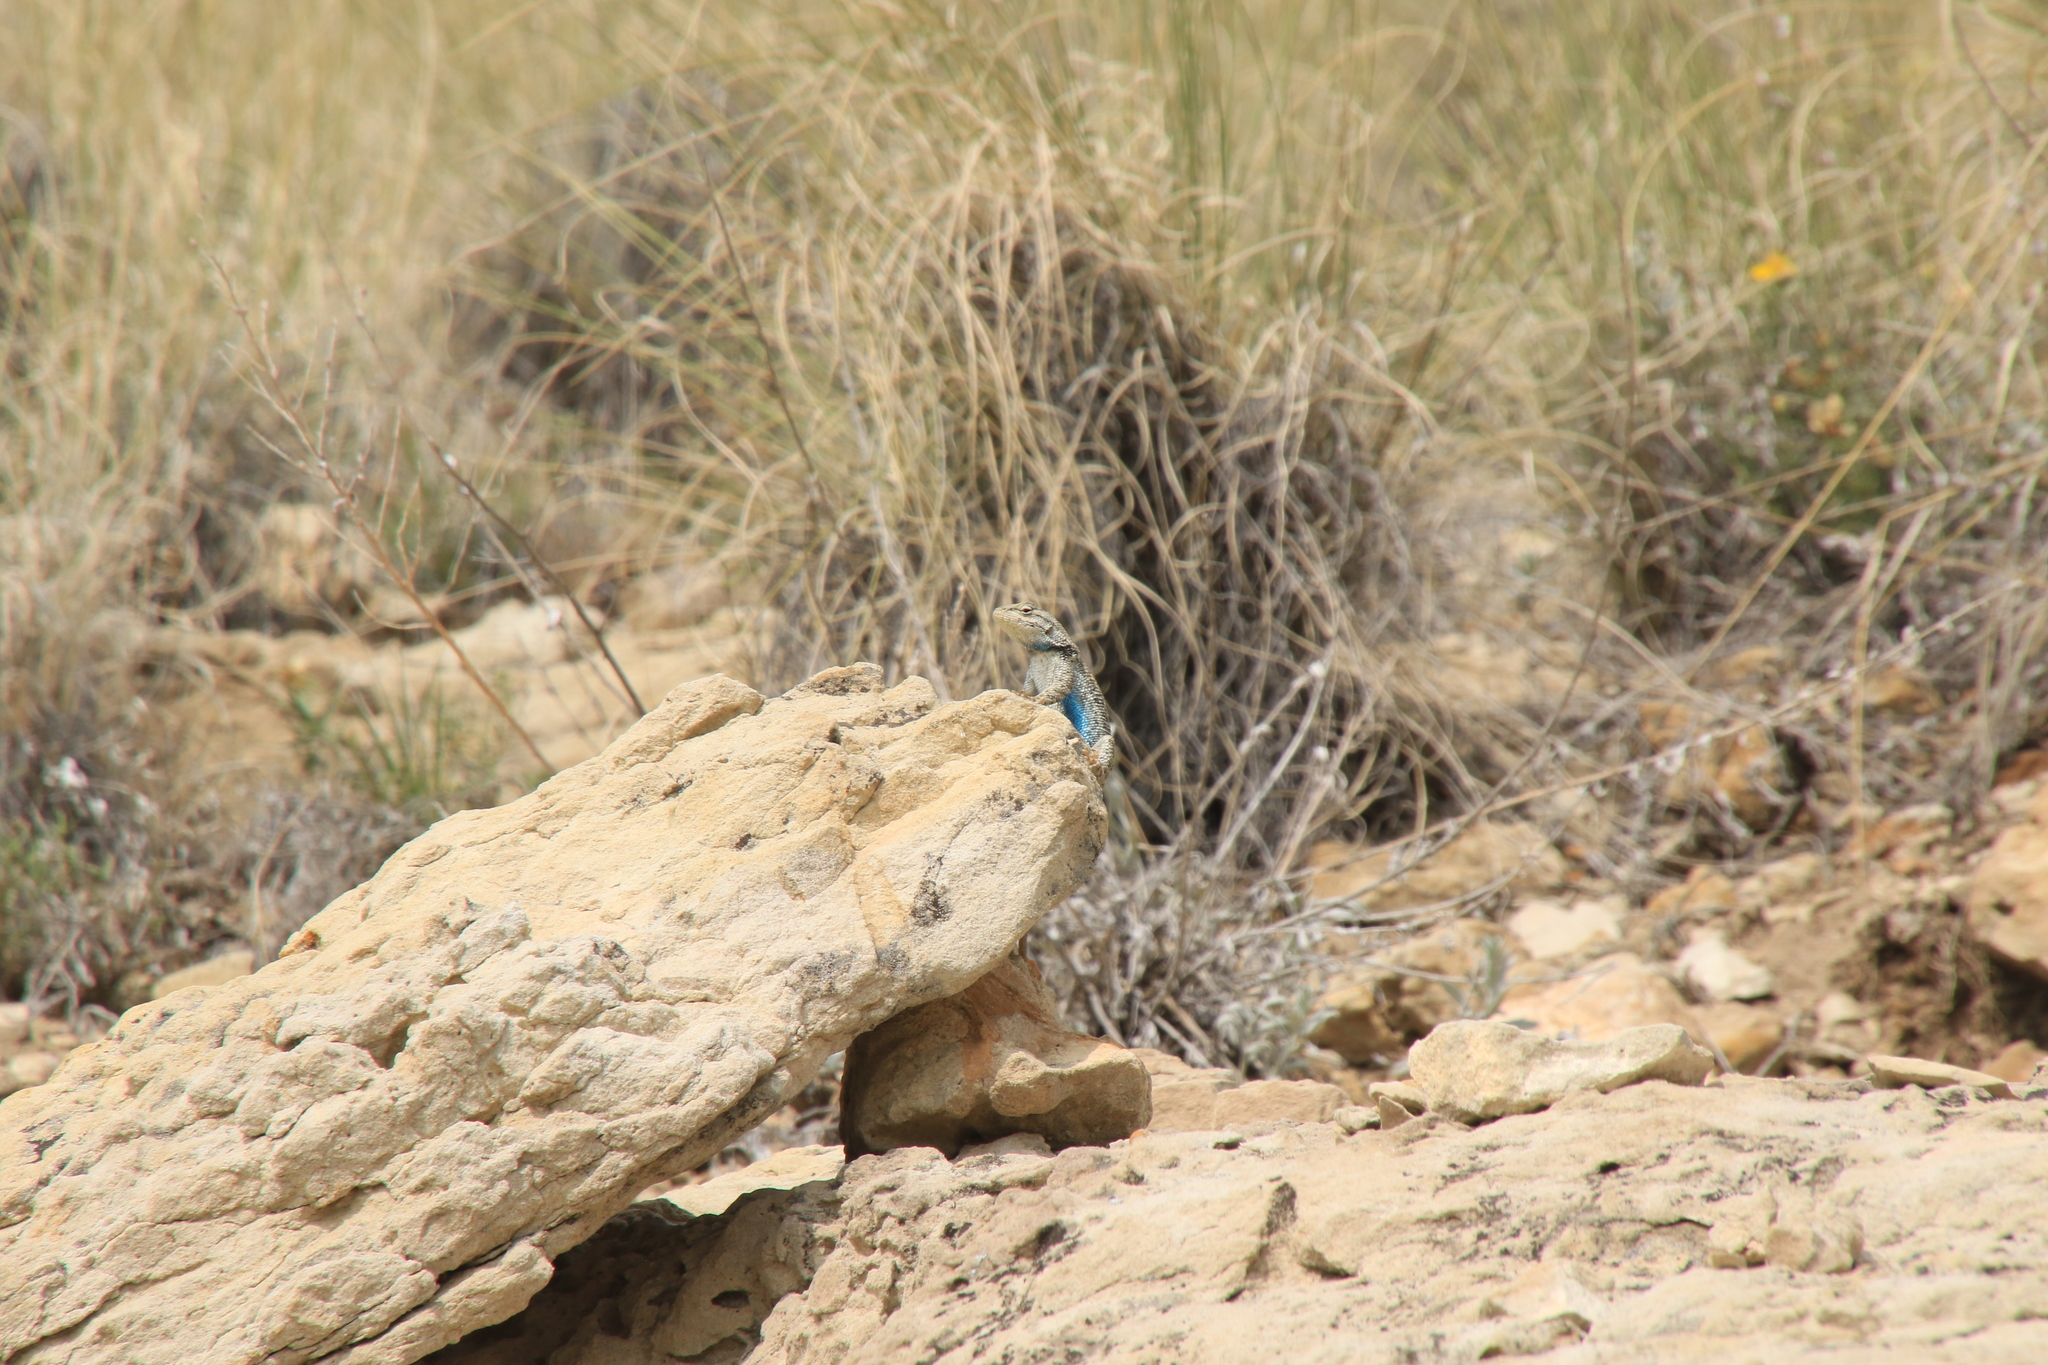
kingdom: Animalia
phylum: Chordata
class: Squamata
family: Phrynosomatidae
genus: Sceloporus
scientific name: Sceloporus consobrinus
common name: Southern prairie lizard
